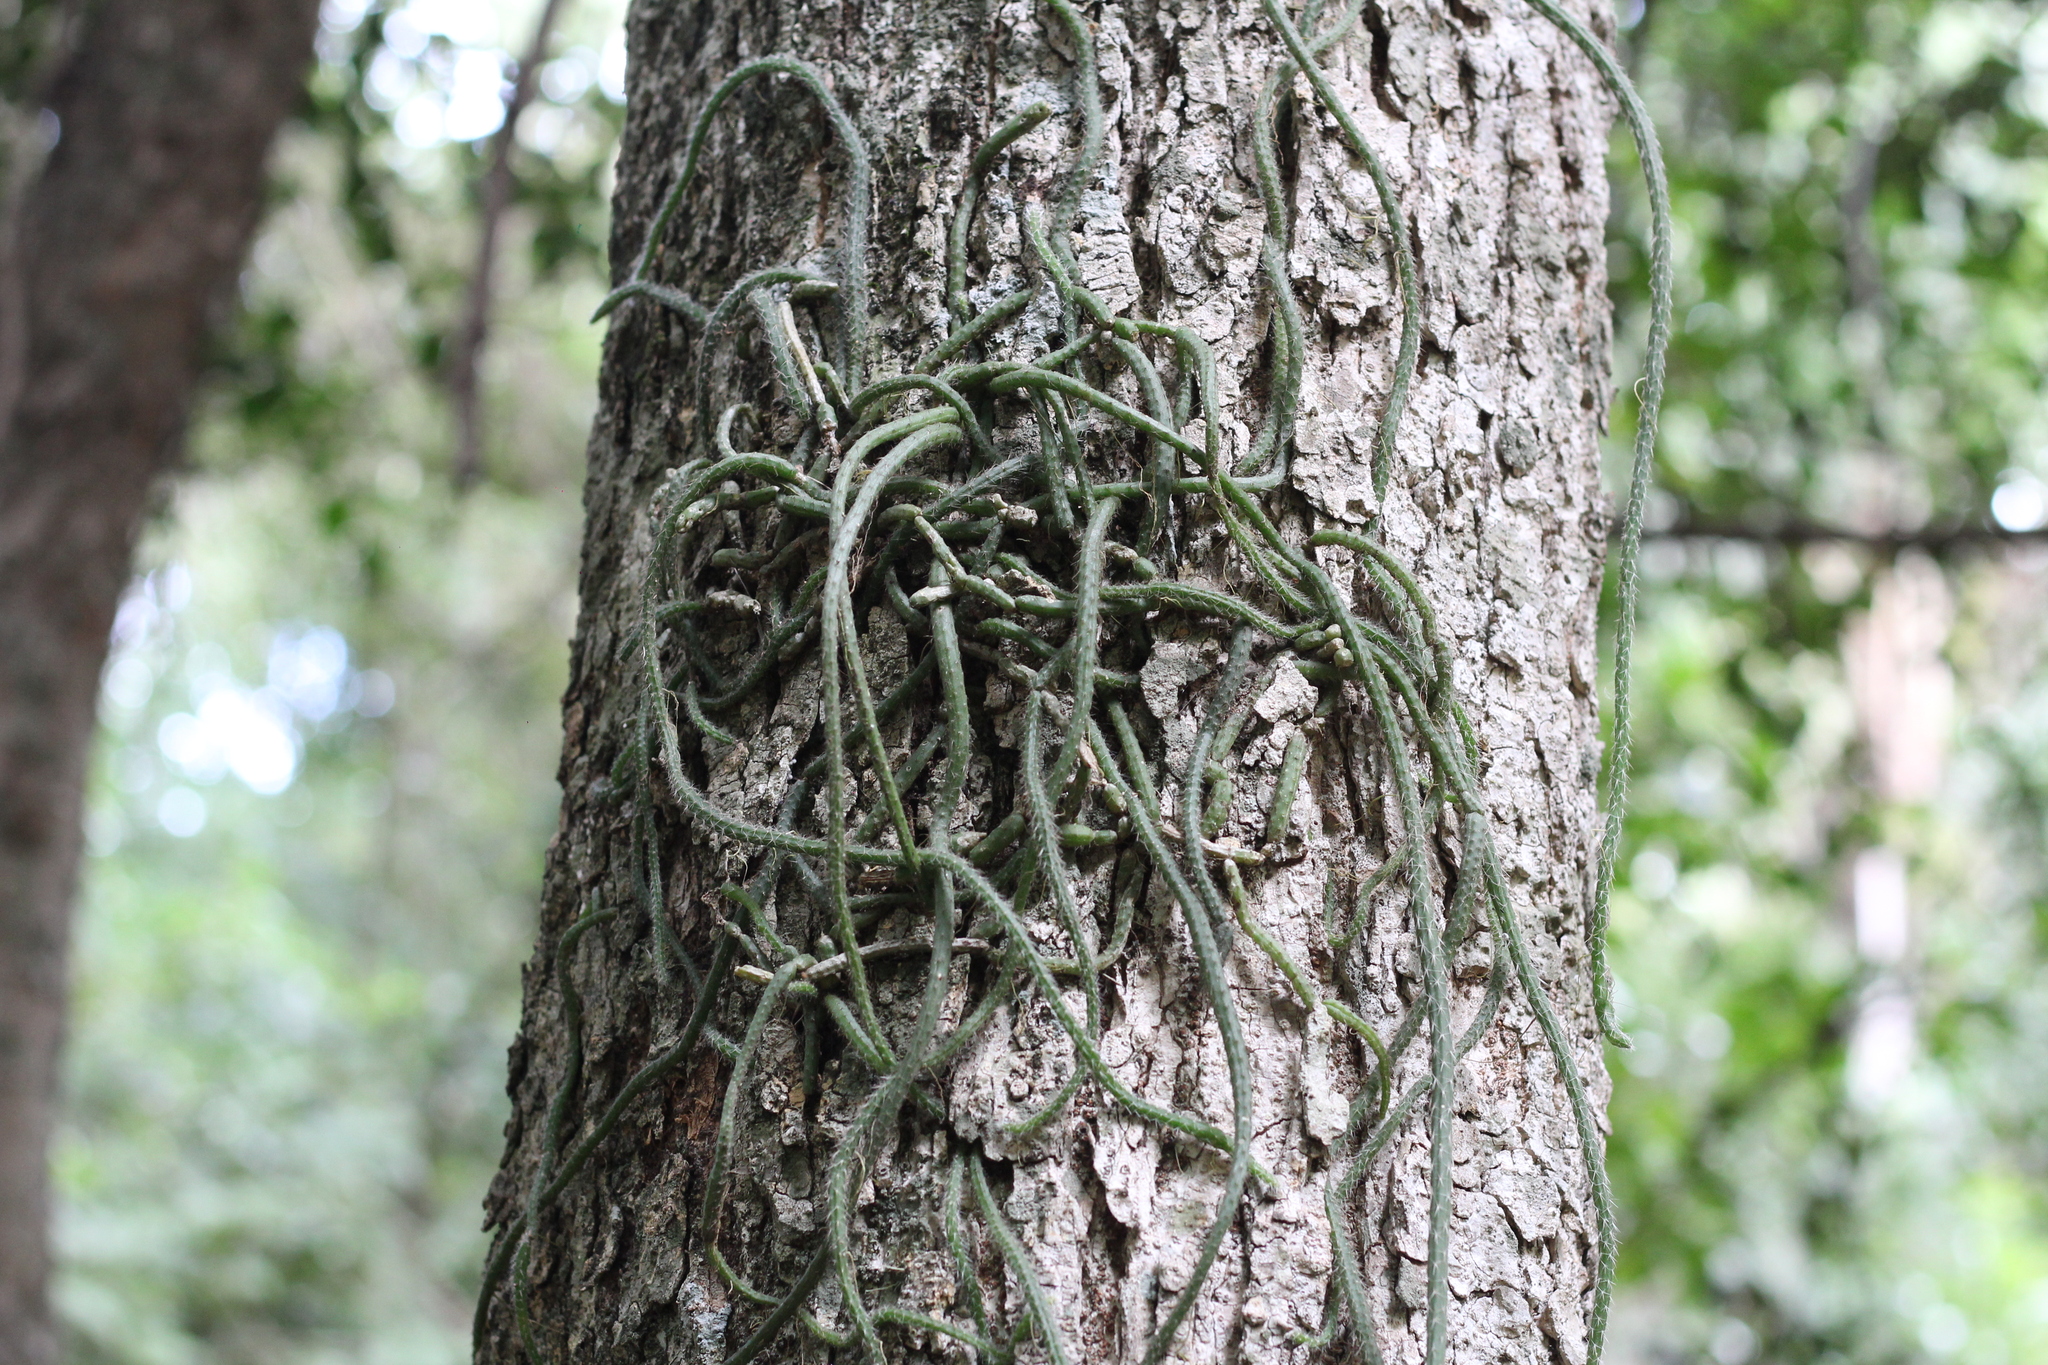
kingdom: Plantae
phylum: Tracheophyta
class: Magnoliopsida
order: Caryophyllales
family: Cactaceae
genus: Lepismium
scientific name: Lepismium lumbricoides
